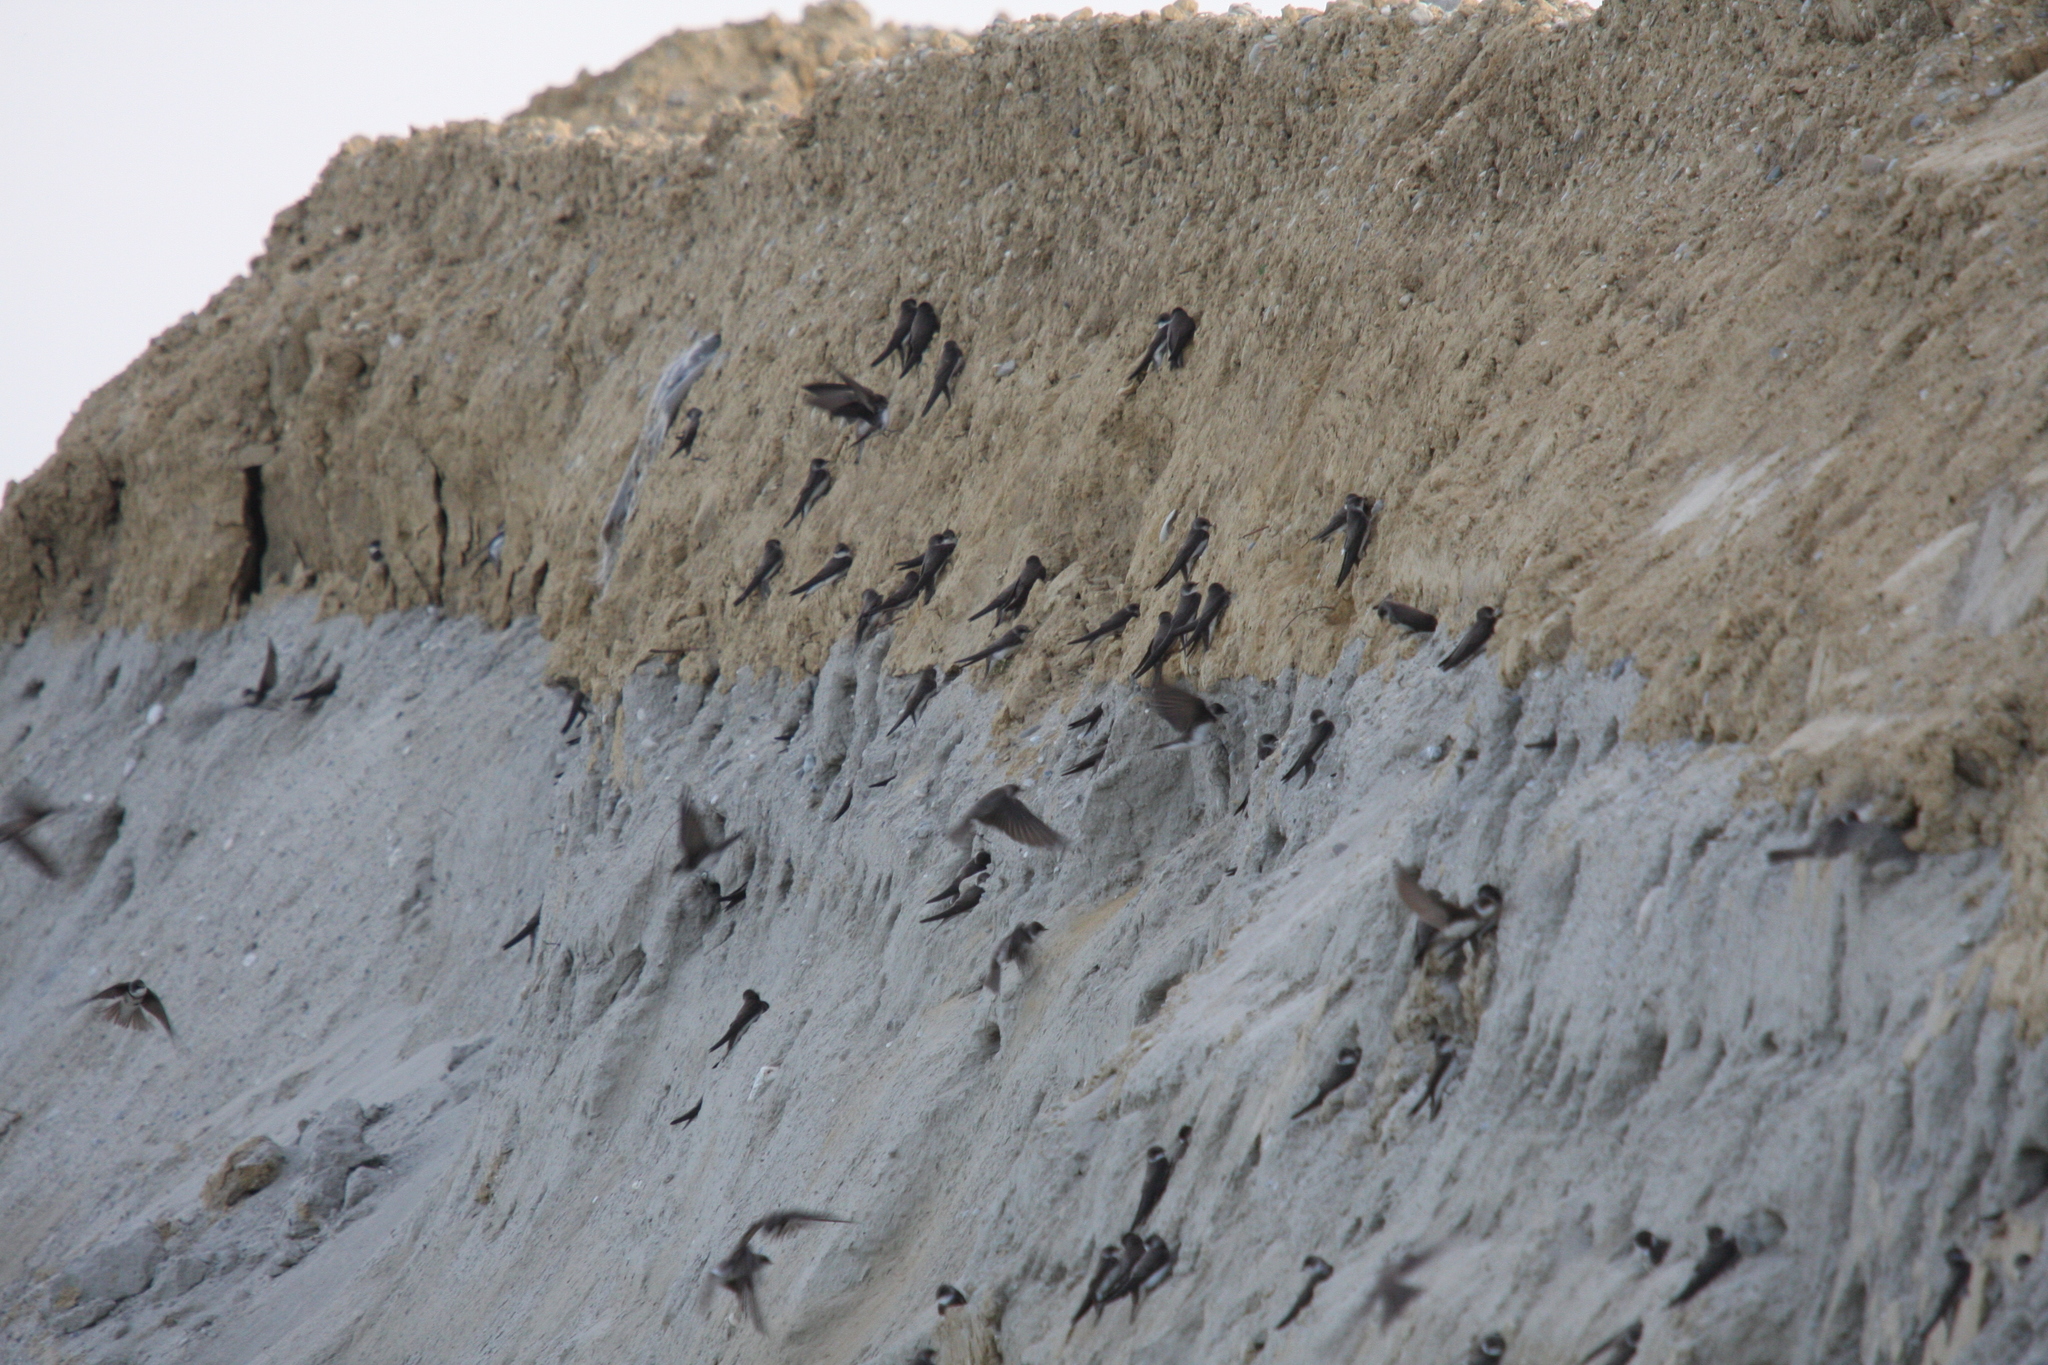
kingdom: Animalia
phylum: Chordata
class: Aves
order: Passeriformes
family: Hirundinidae
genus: Riparia
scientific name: Riparia riparia
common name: Sand martin
